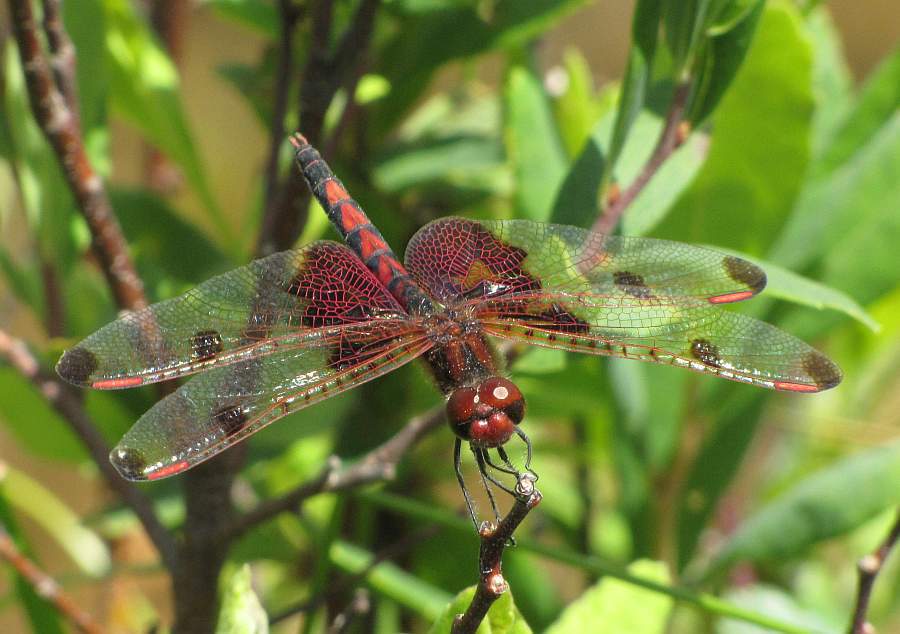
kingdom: Animalia
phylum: Arthropoda
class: Insecta
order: Odonata
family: Libellulidae
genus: Celithemis
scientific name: Celithemis elisa
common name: Calico pennant
